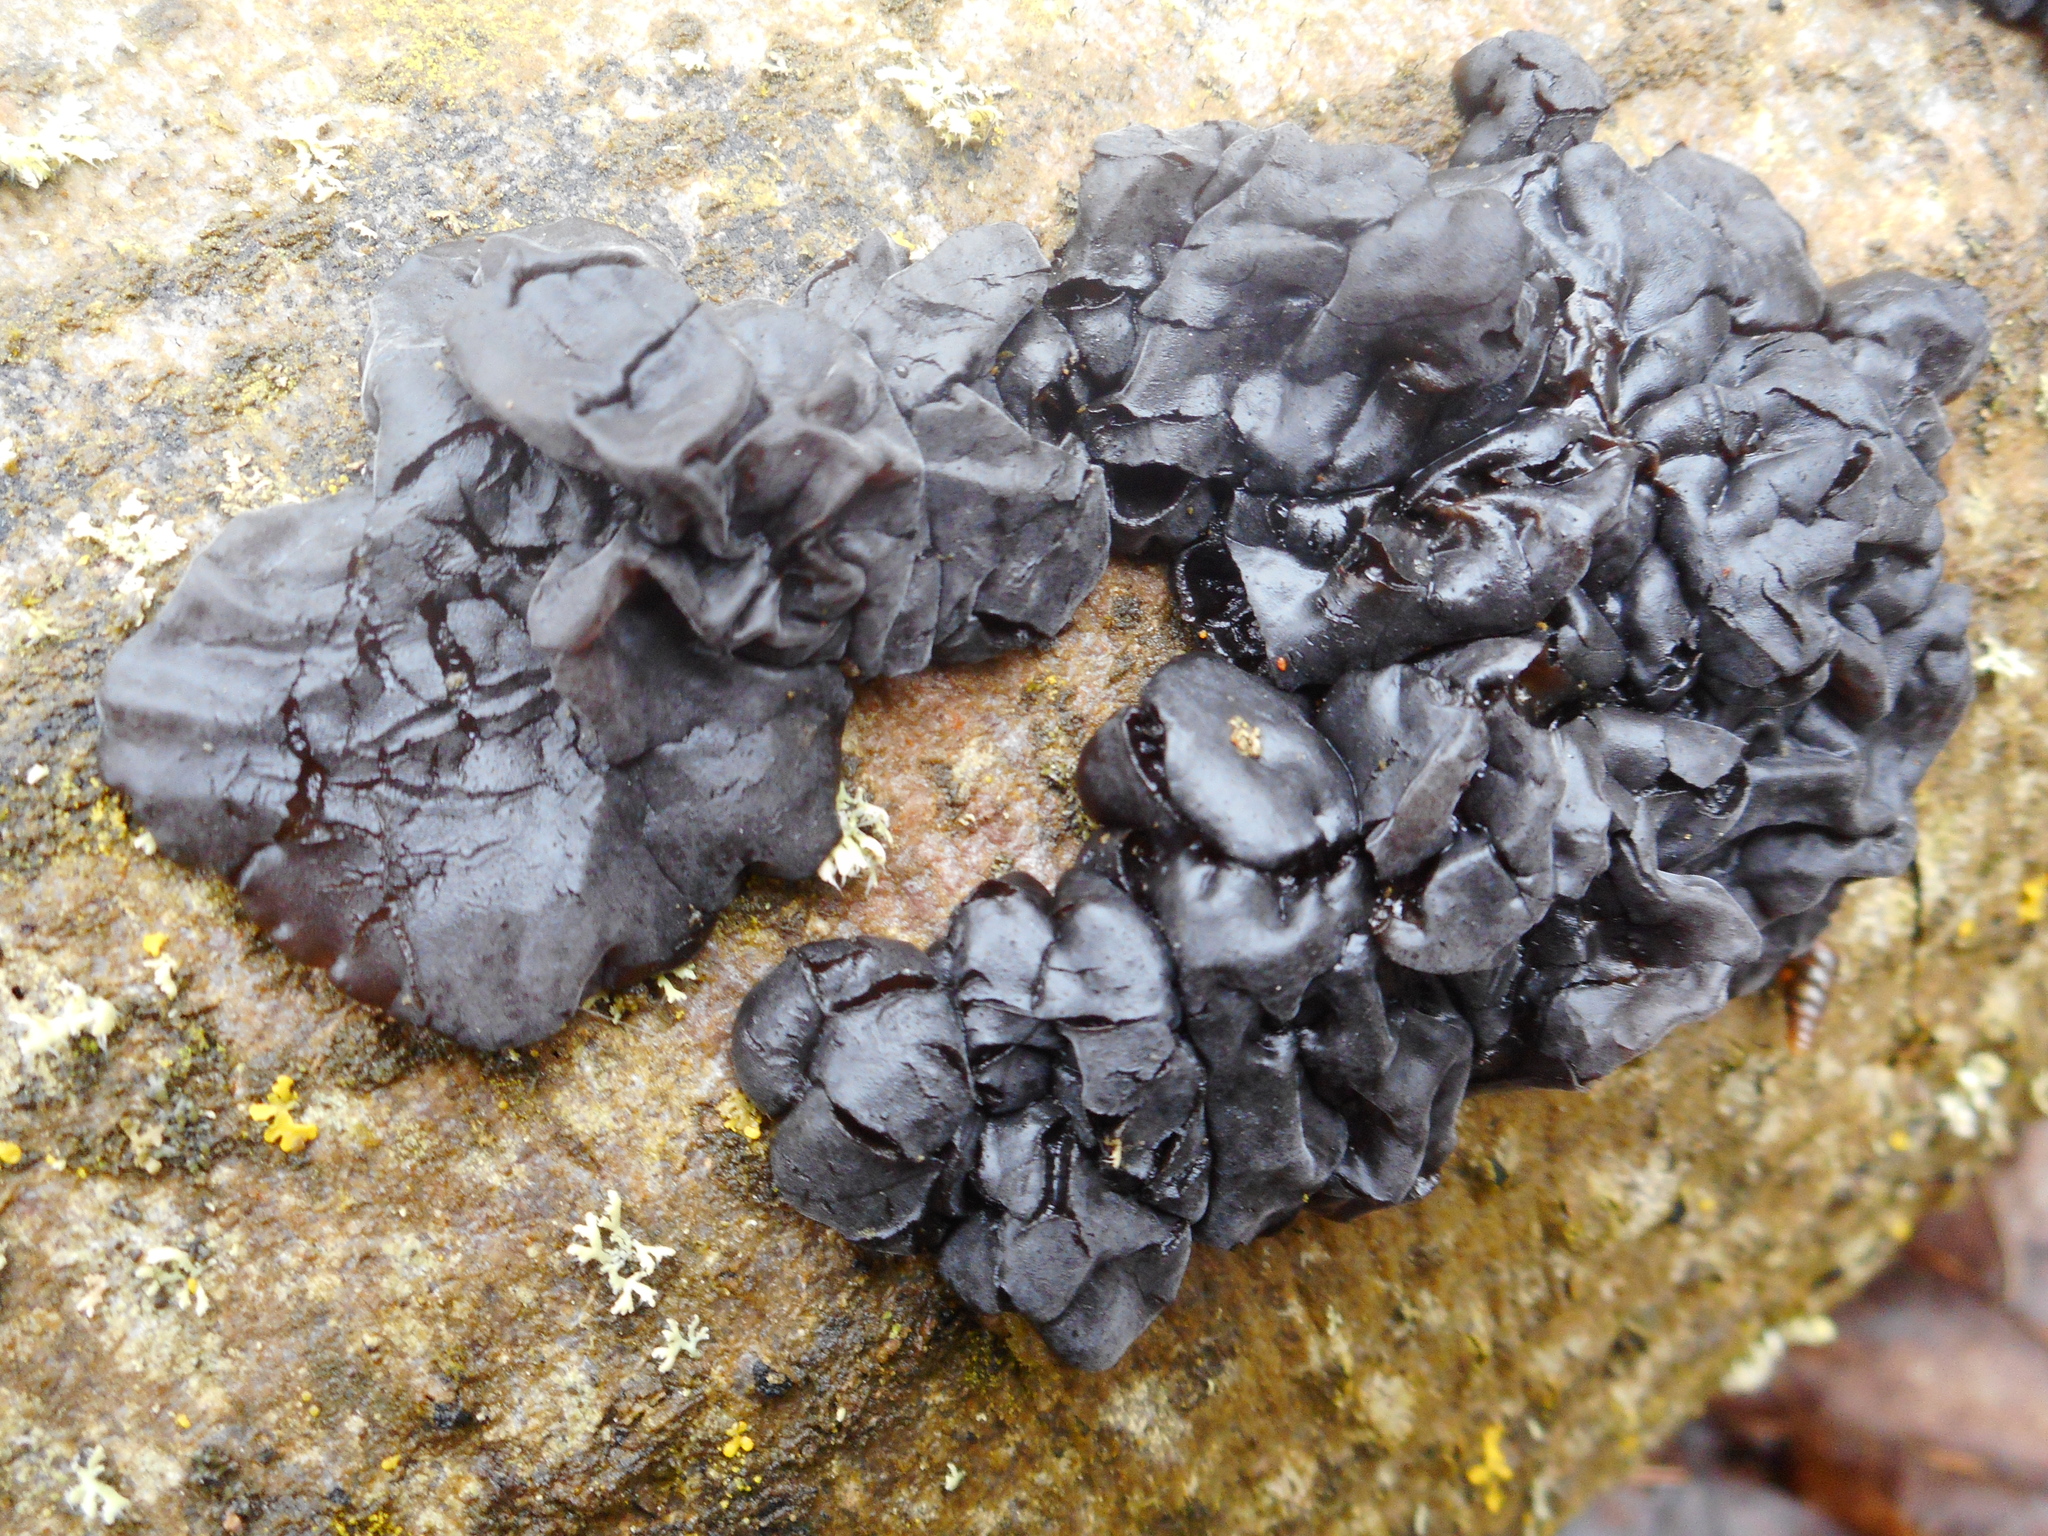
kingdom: Fungi
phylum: Basidiomycota
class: Agaricomycetes
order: Auriculariales
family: Auriculariaceae
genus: Exidia
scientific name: Exidia nigricans
